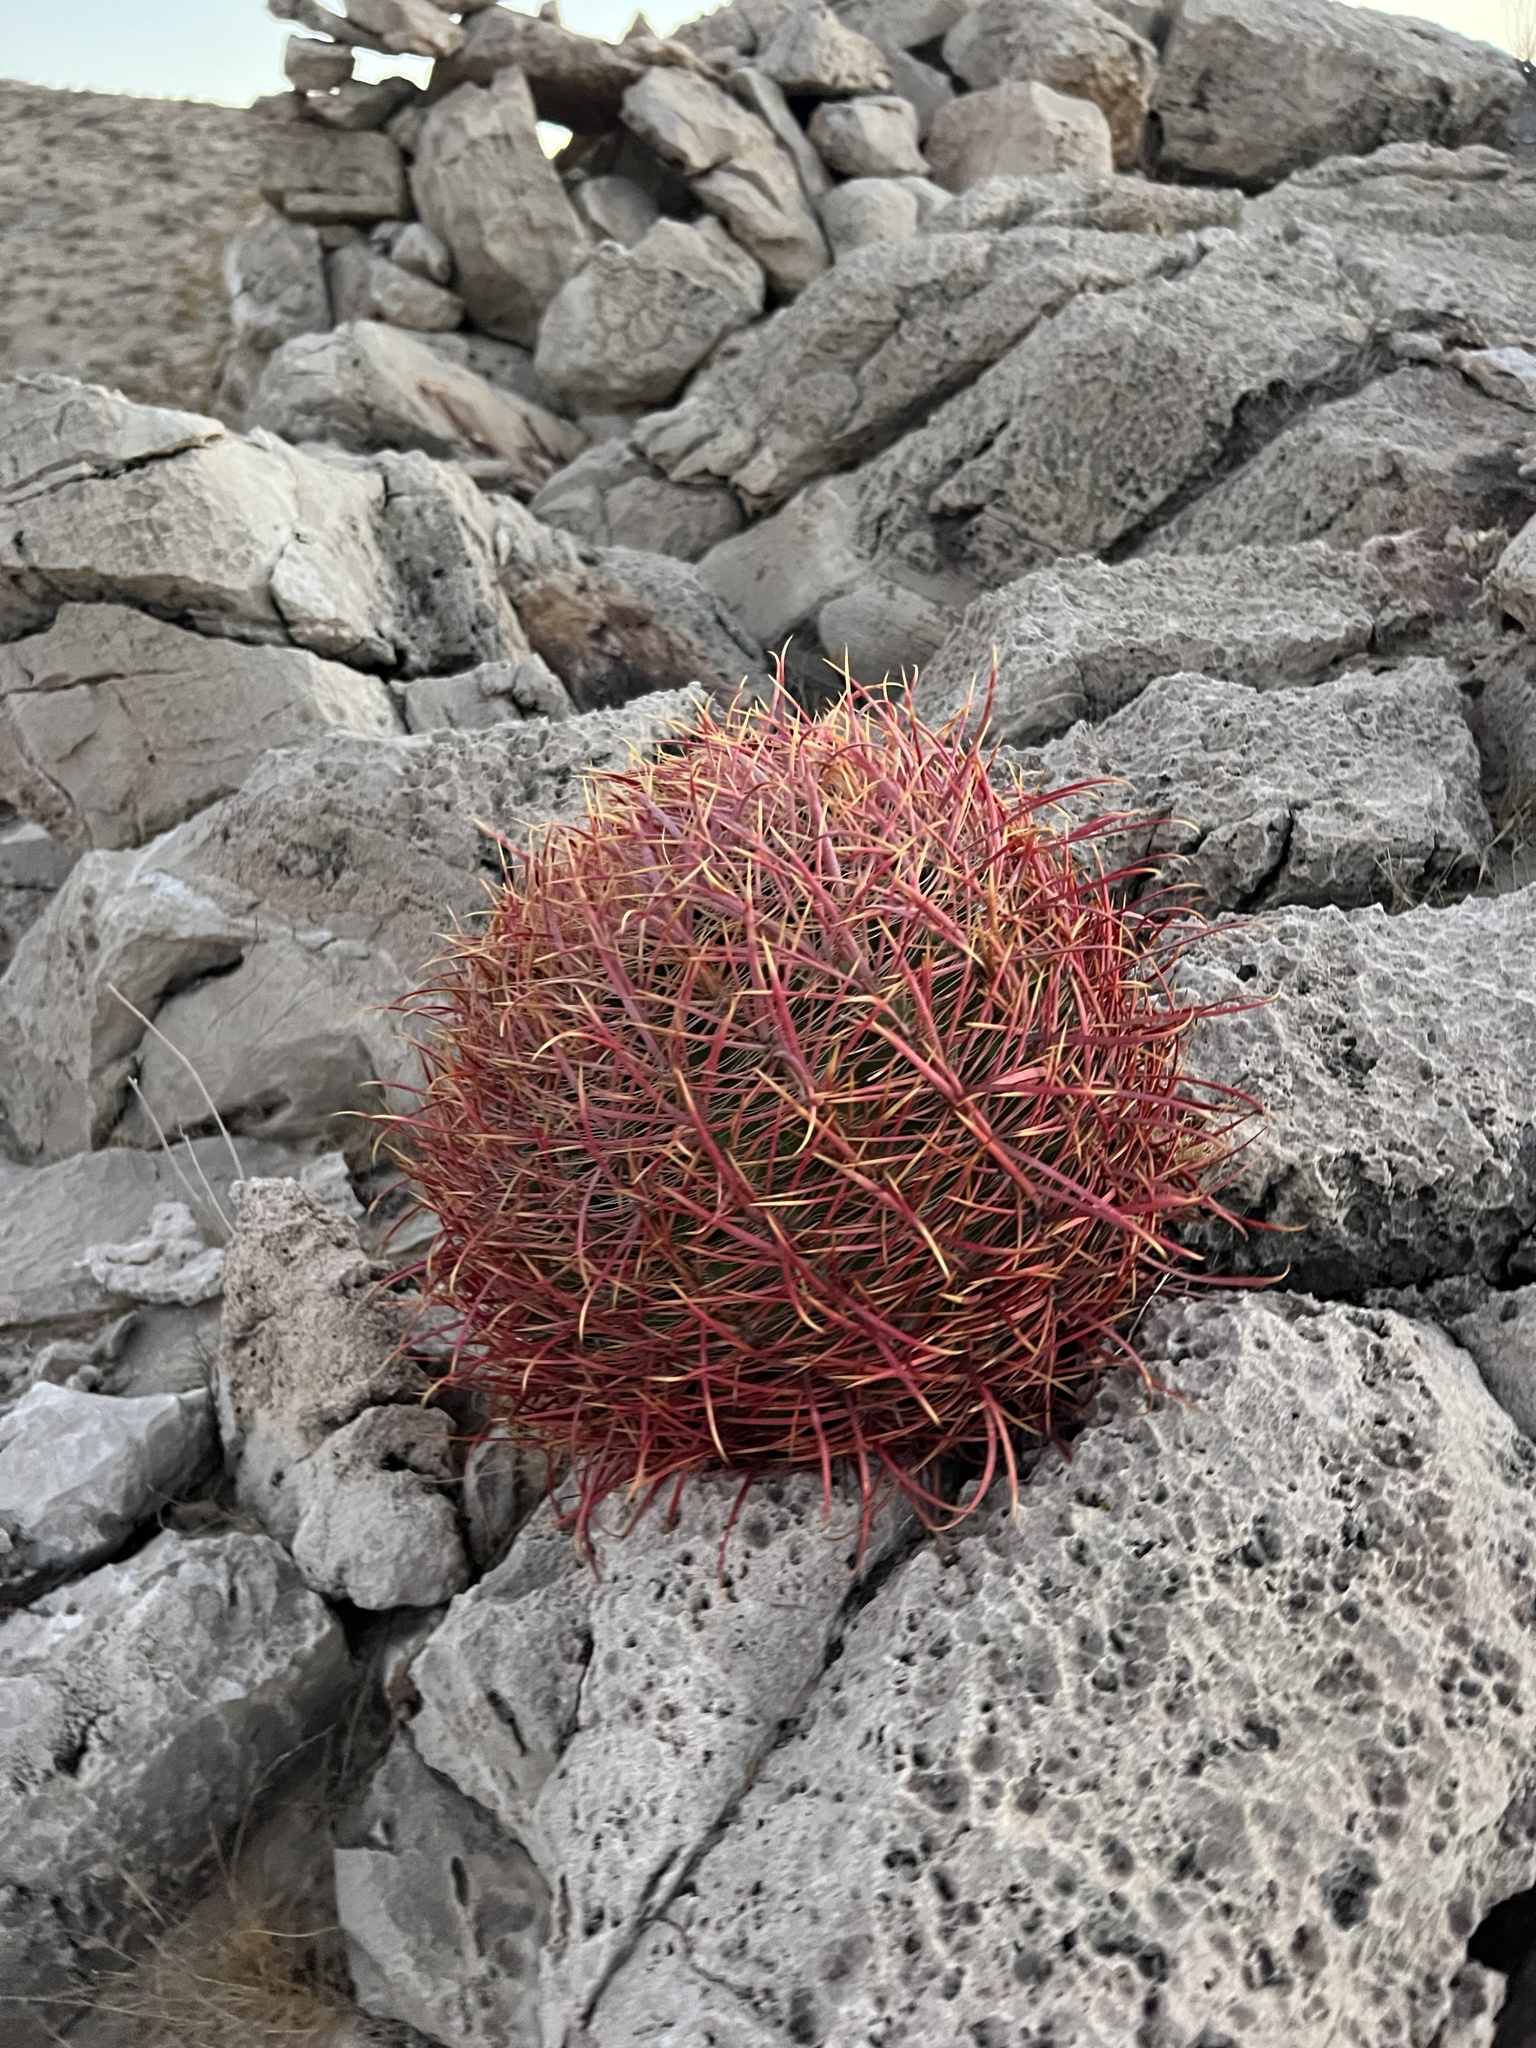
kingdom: Plantae
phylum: Tracheophyta
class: Magnoliopsida
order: Caryophyllales
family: Cactaceae
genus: Ferocactus
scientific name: Ferocactus cylindraceus
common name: California barrel cactus
